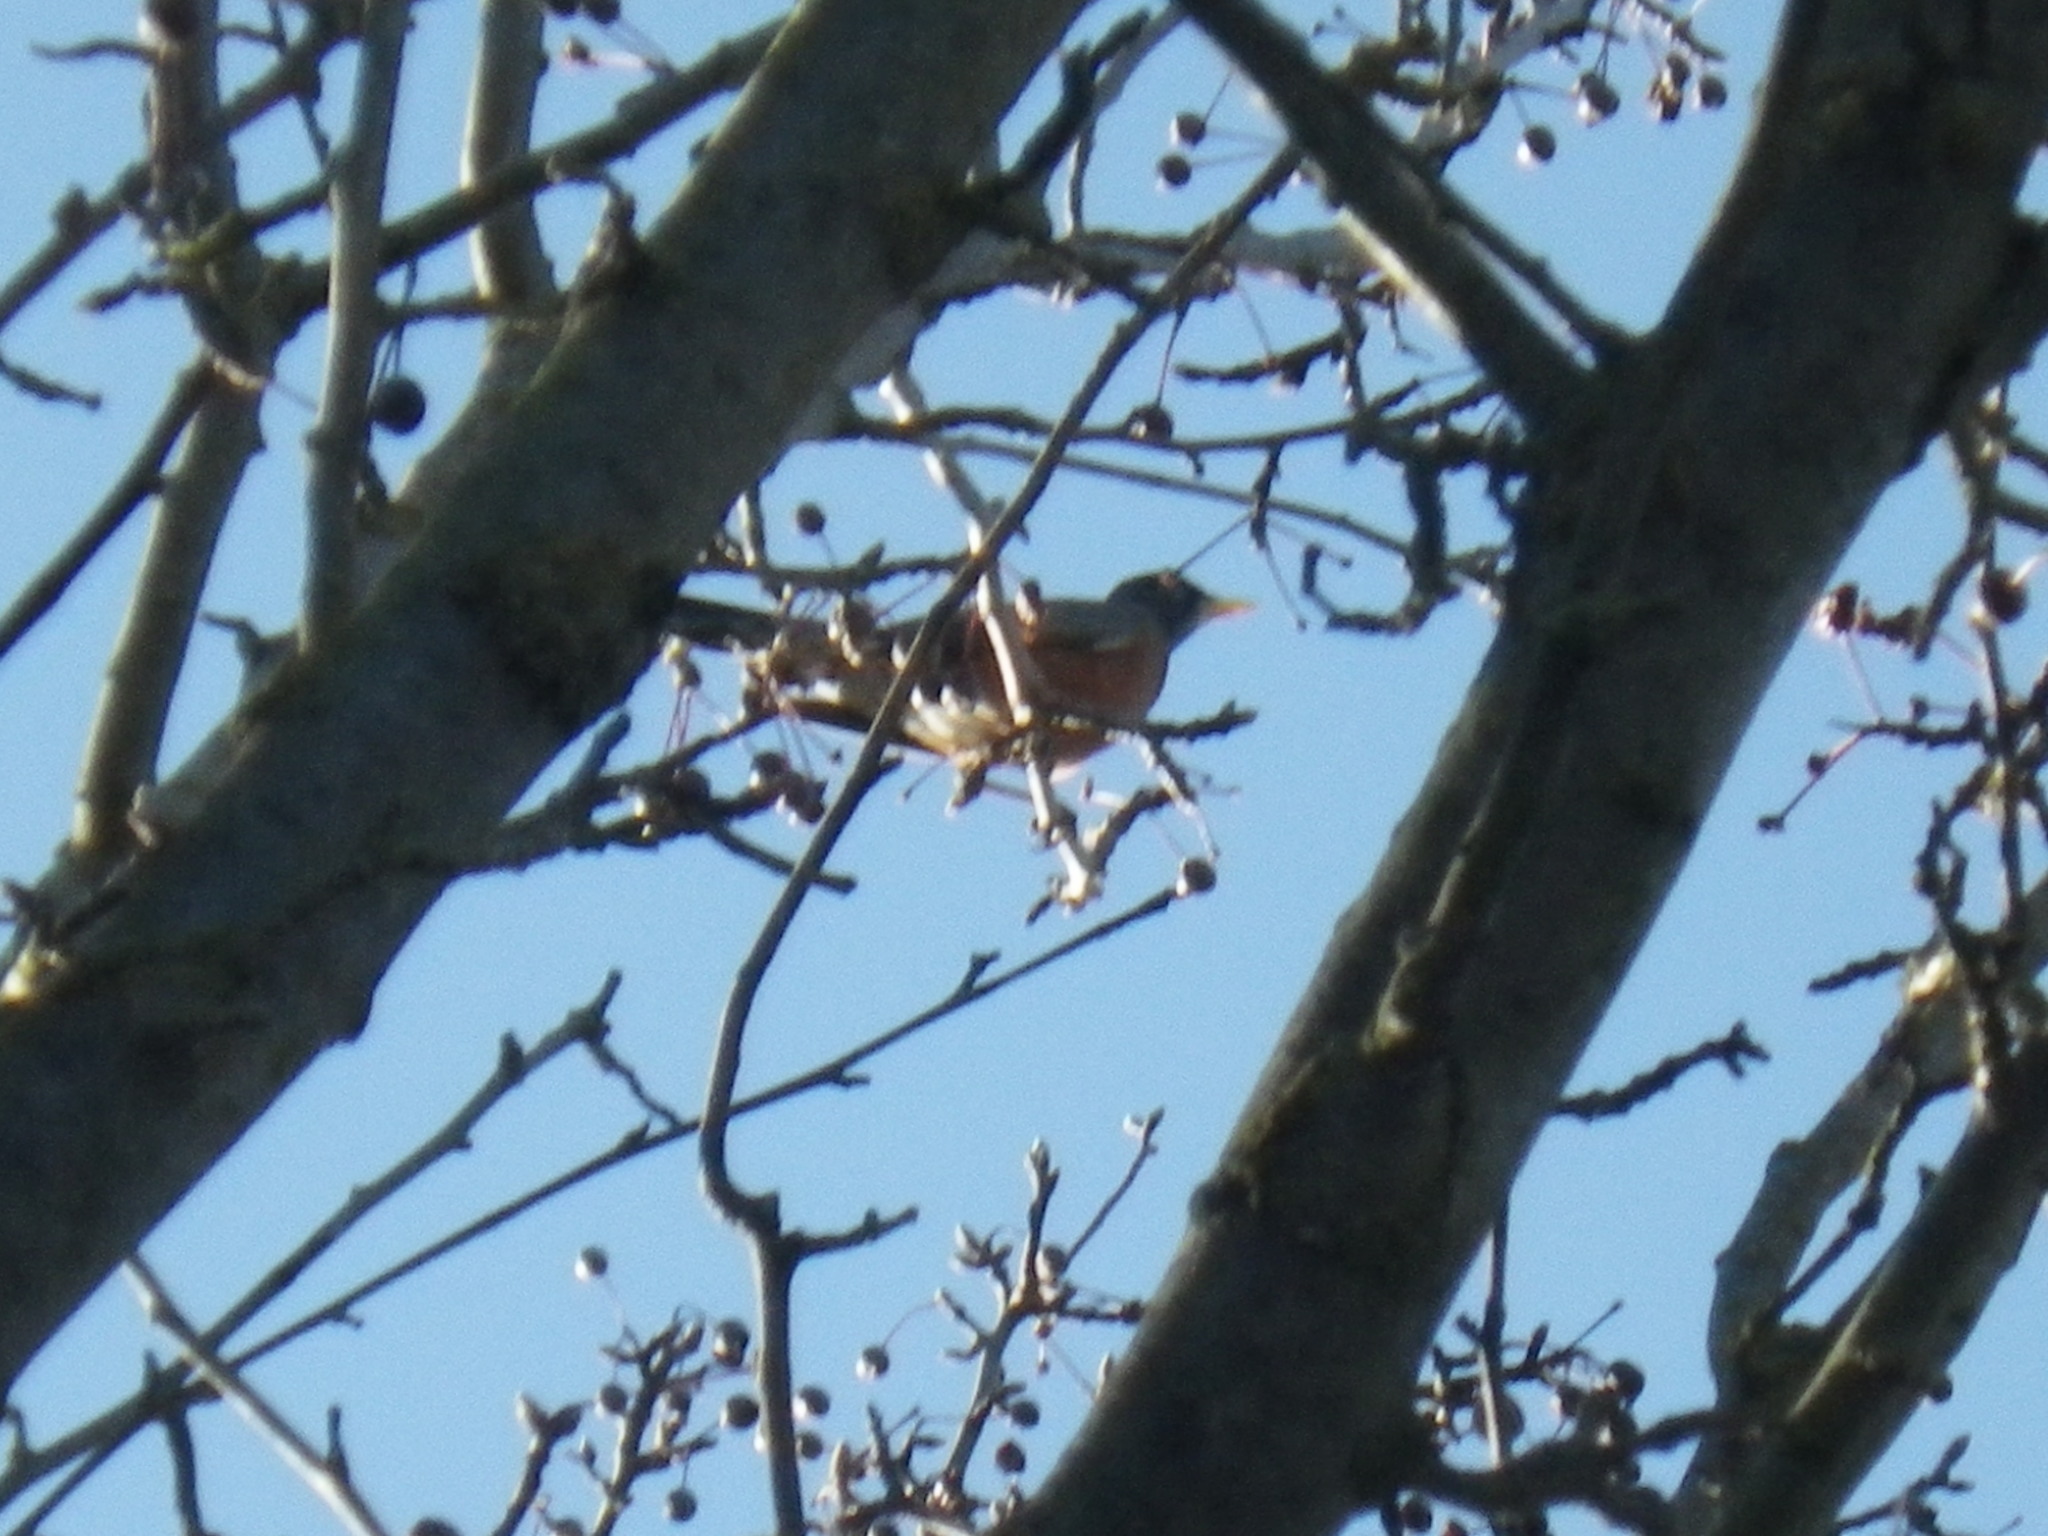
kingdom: Animalia
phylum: Chordata
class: Aves
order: Passeriformes
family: Turdidae
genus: Turdus
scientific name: Turdus migratorius
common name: American robin
